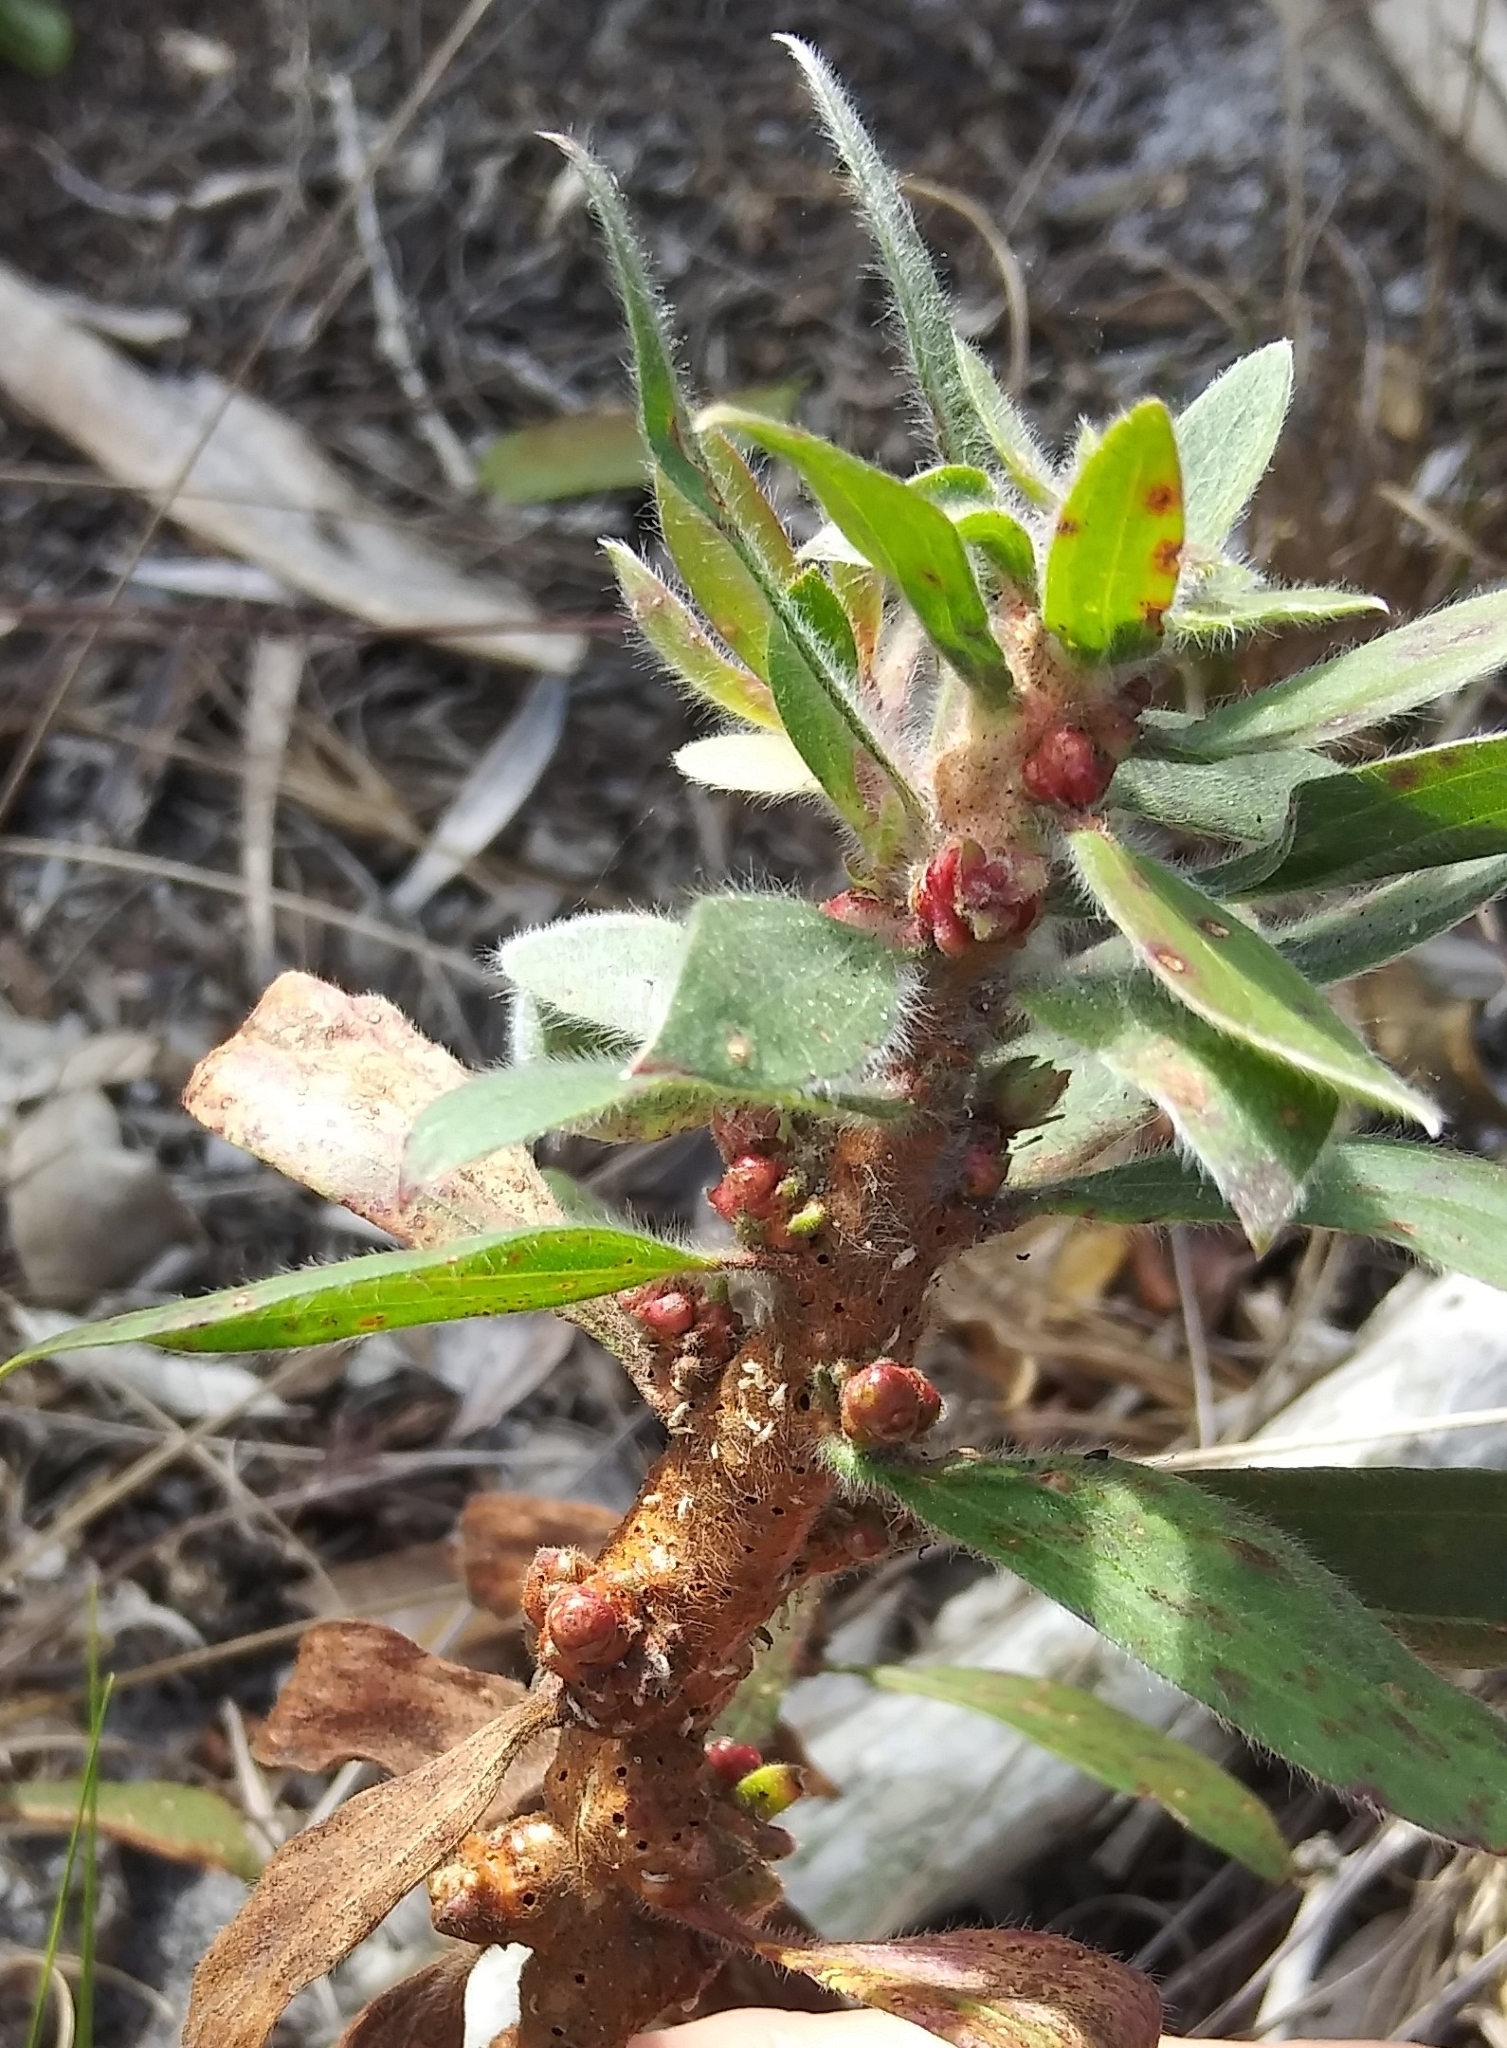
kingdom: Plantae
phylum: Tracheophyta
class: Magnoliopsida
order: Myrtales
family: Myrtaceae
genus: Melaleuca
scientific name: Melaleuca quinquenervia
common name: Punktree
